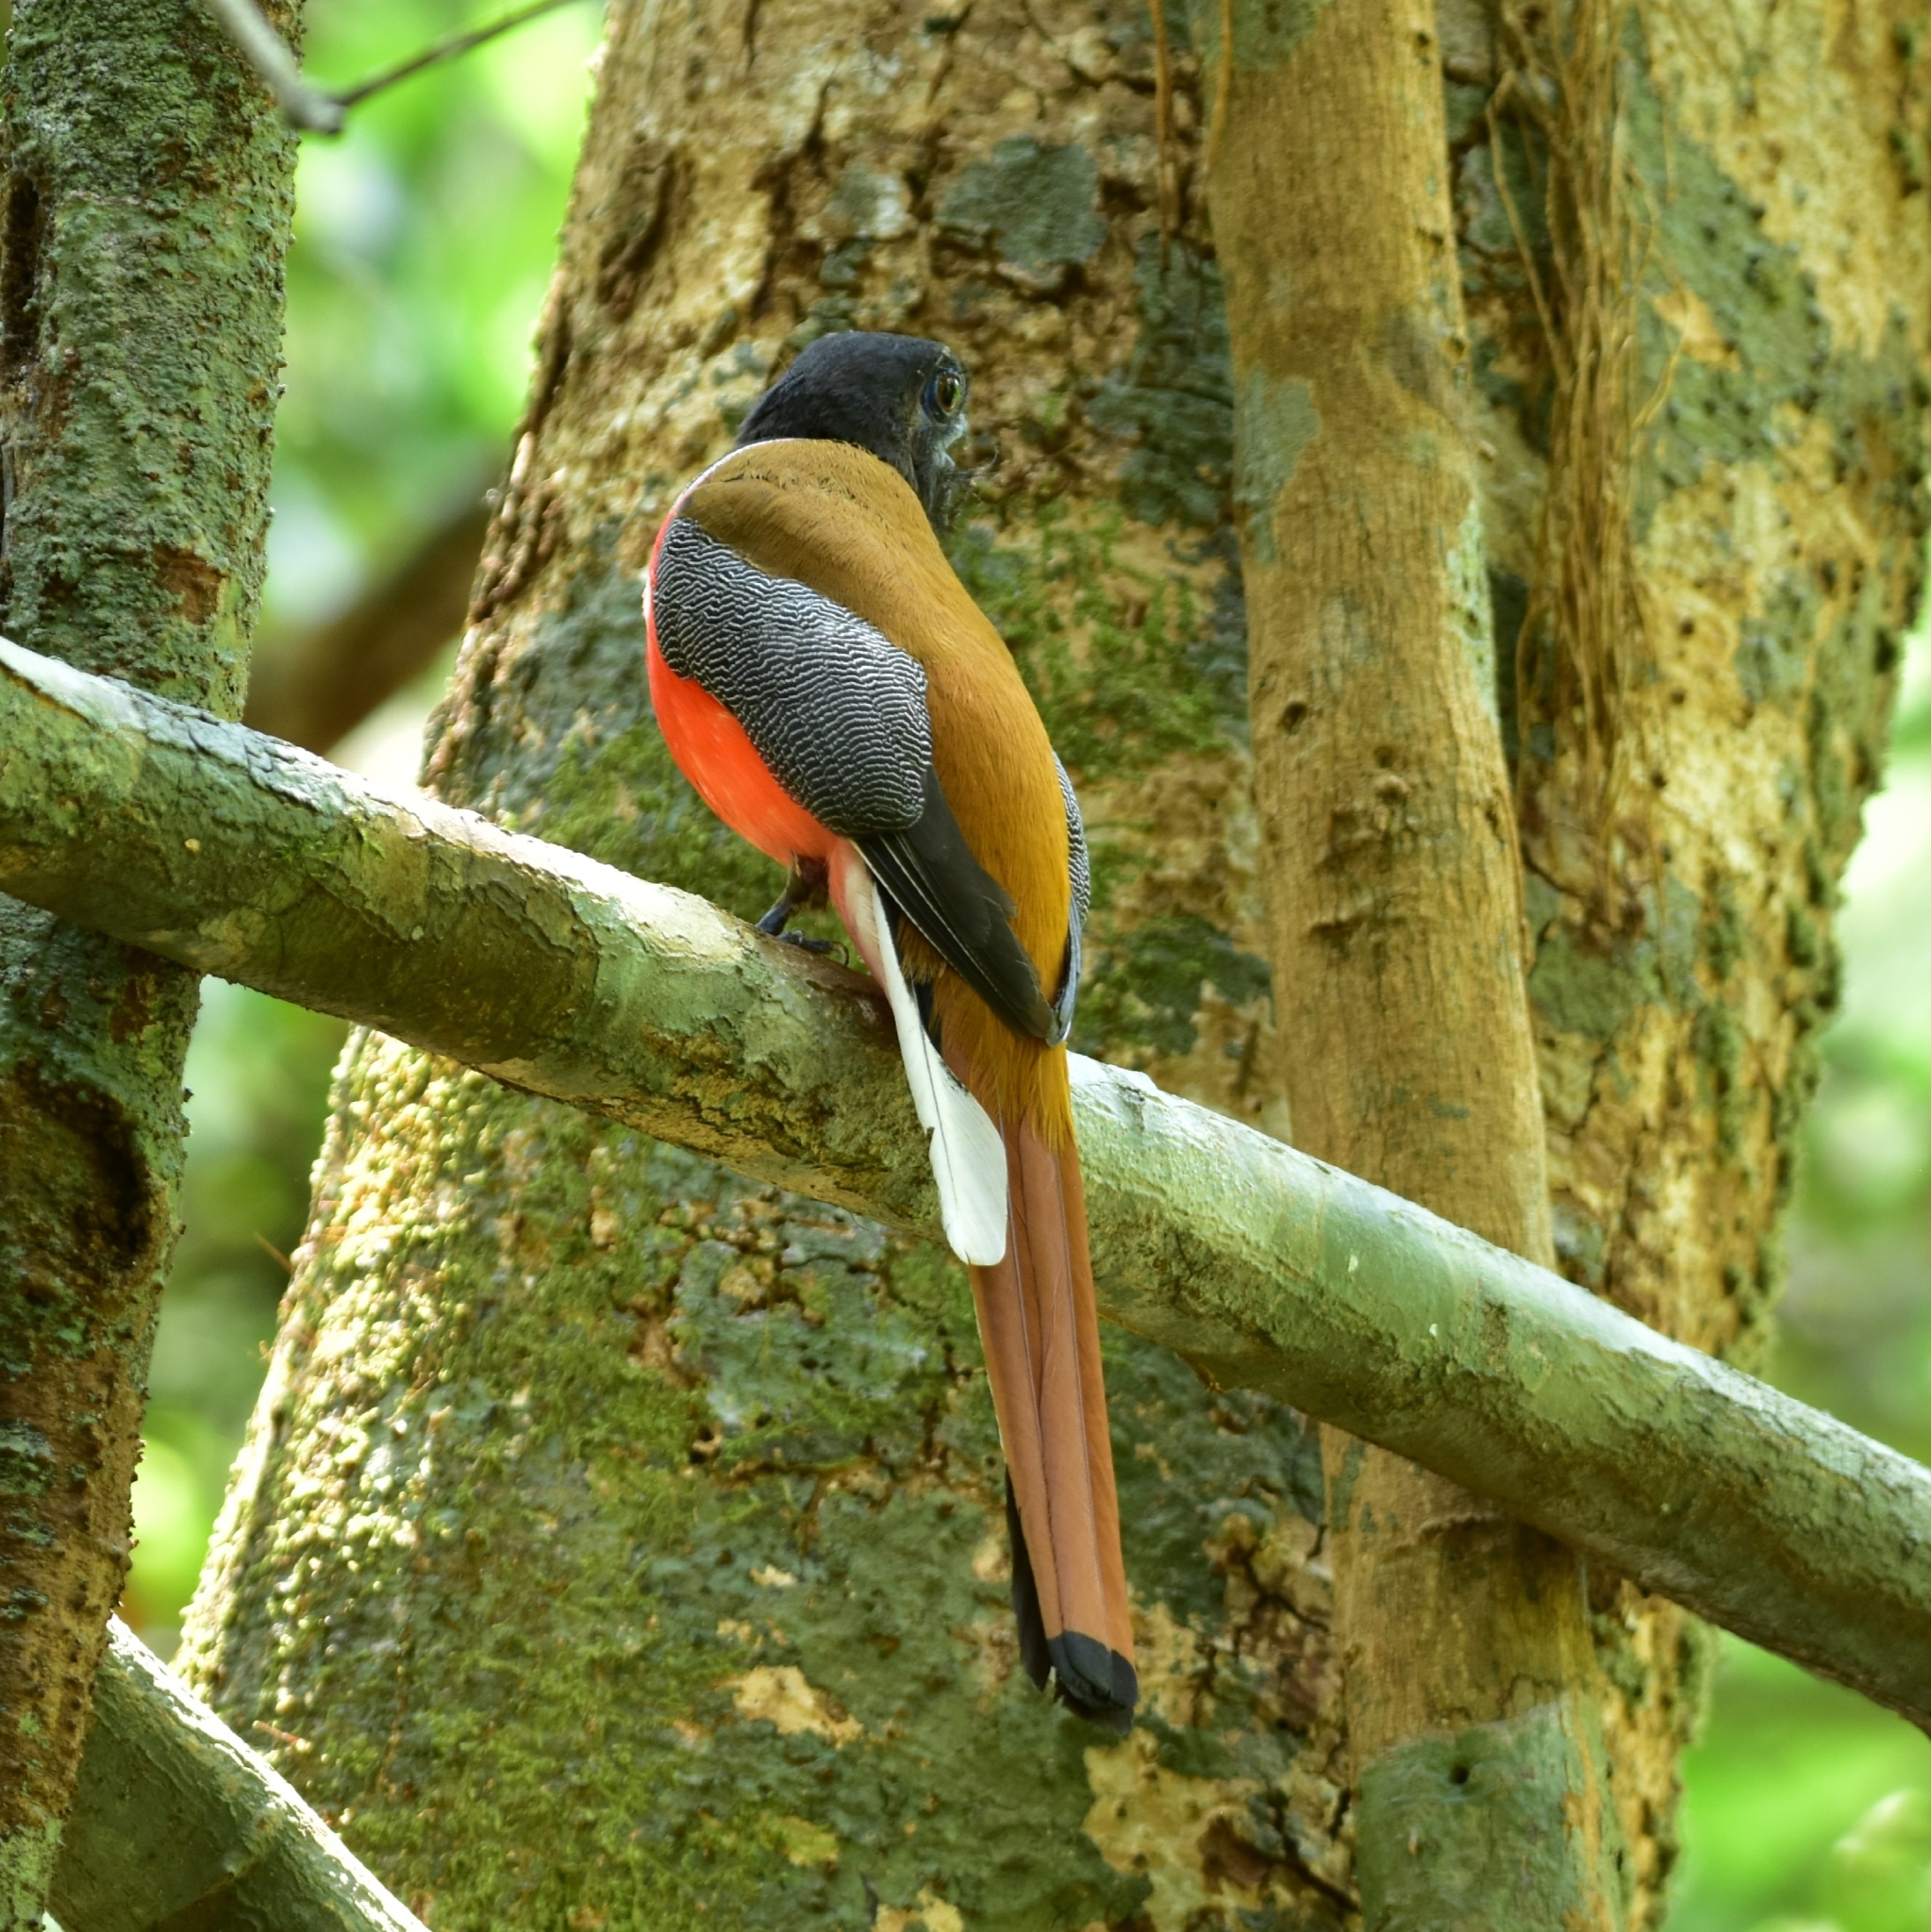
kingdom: Animalia
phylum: Chordata
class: Aves
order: Trogoniformes
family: Trogonidae
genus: Harpactes
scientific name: Harpactes fasciatus
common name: Malabar trogon
